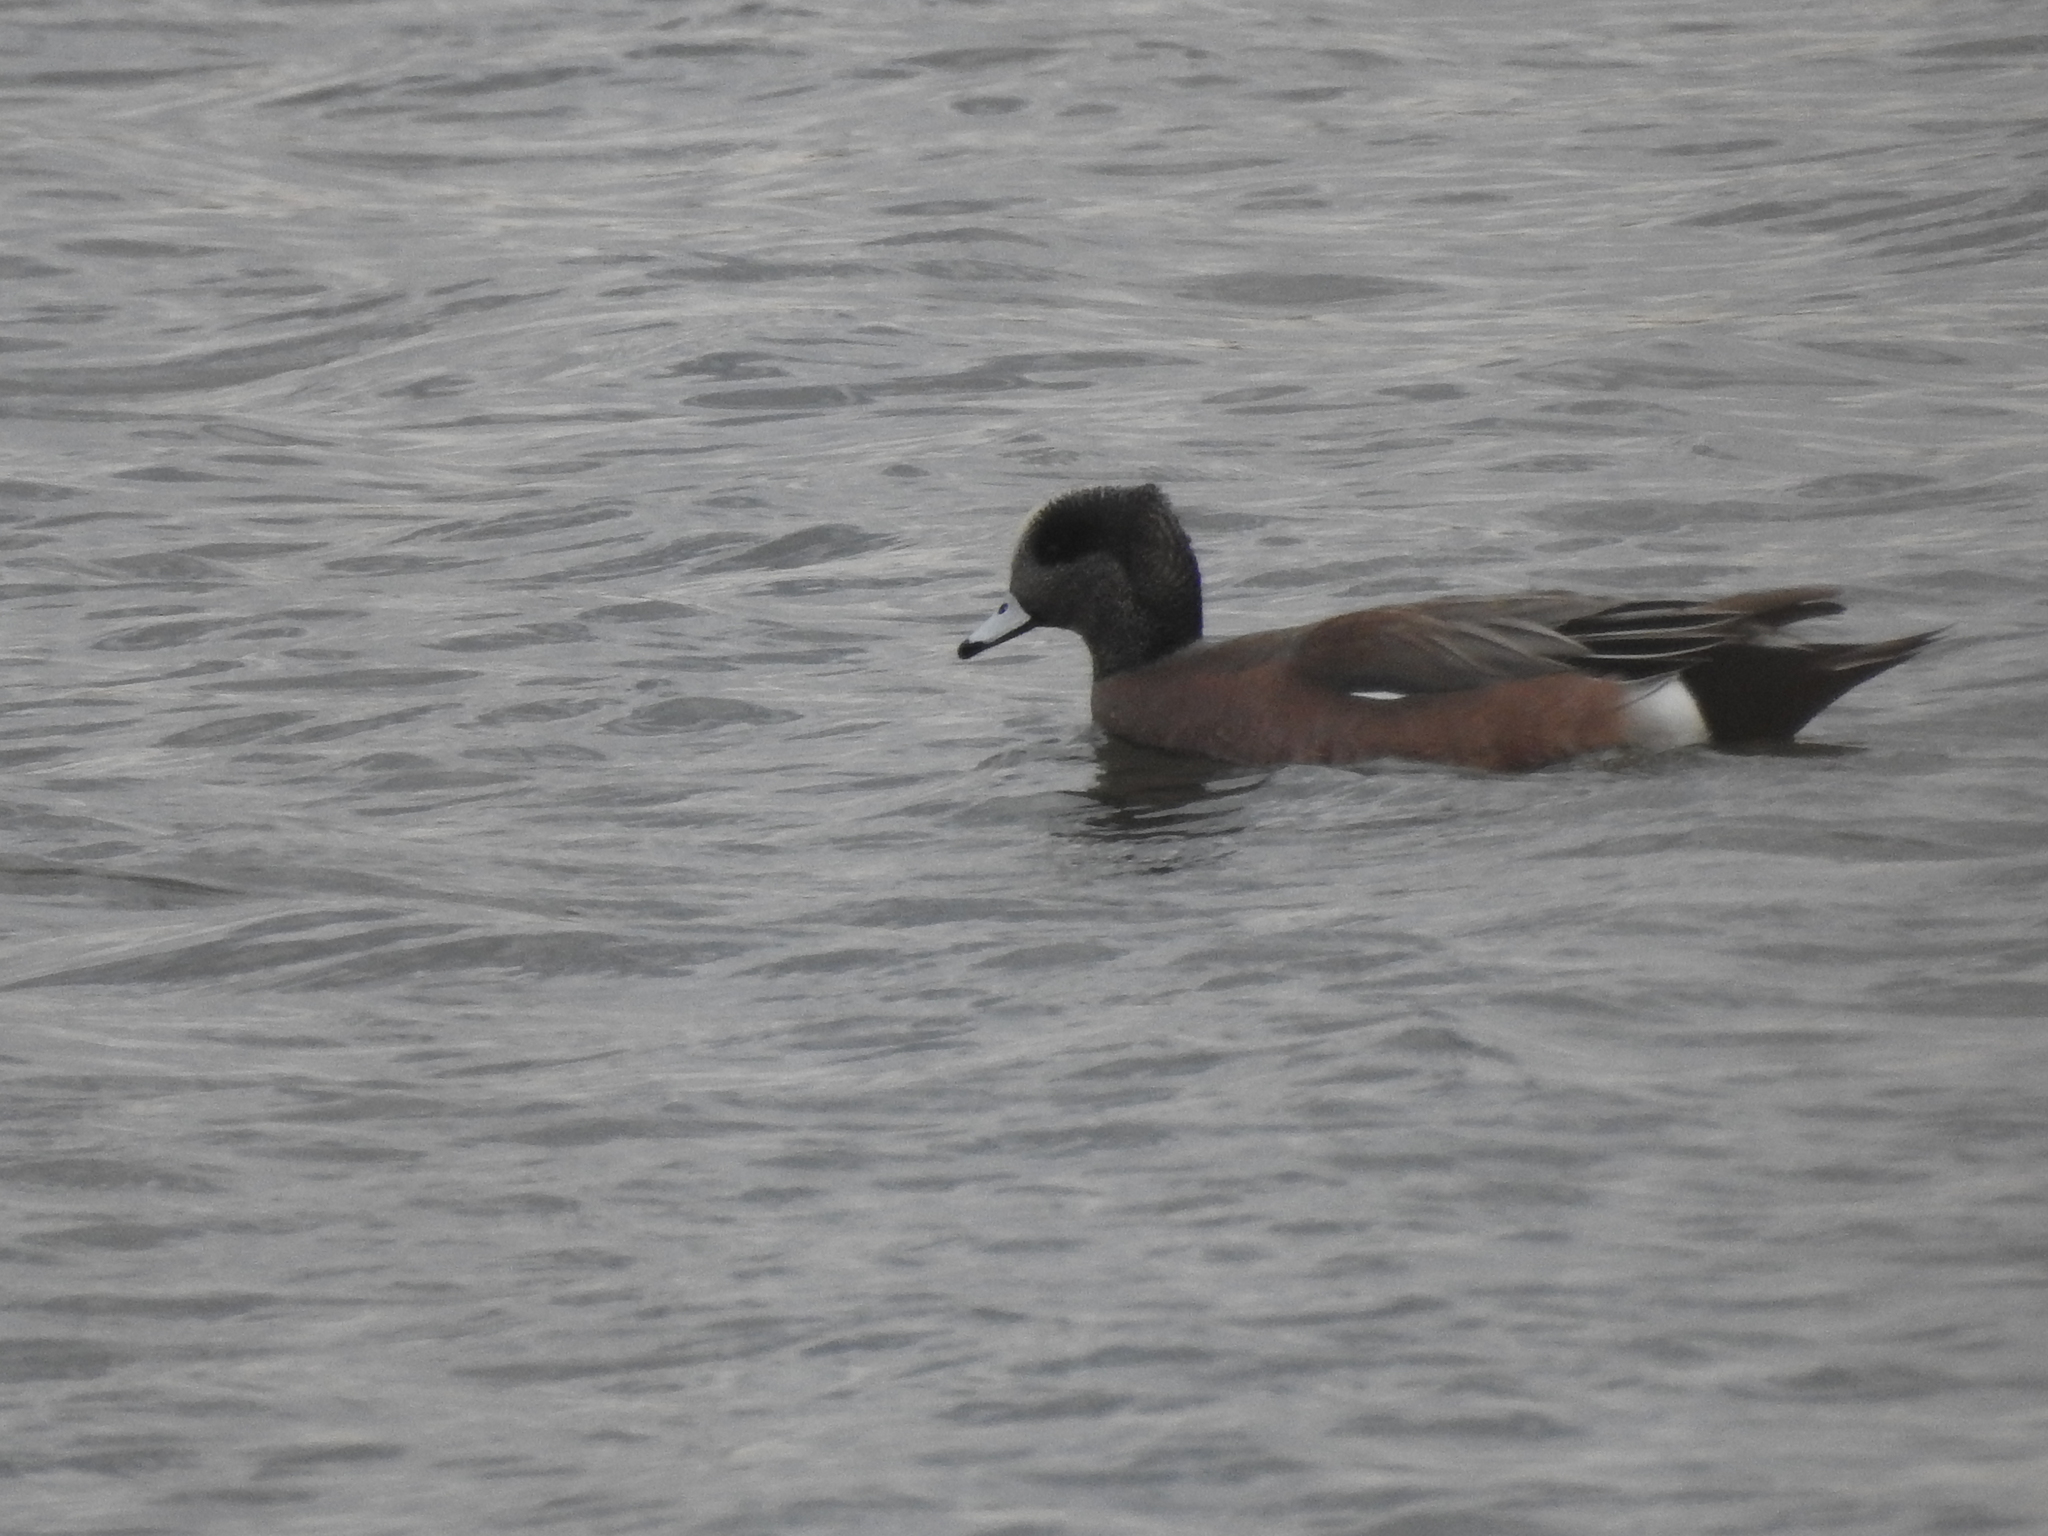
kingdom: Animalia
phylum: Chordata
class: Aves
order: Anseriformes
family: Anatidae
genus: Mareca
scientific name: Mareca americana
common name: American wigeon
